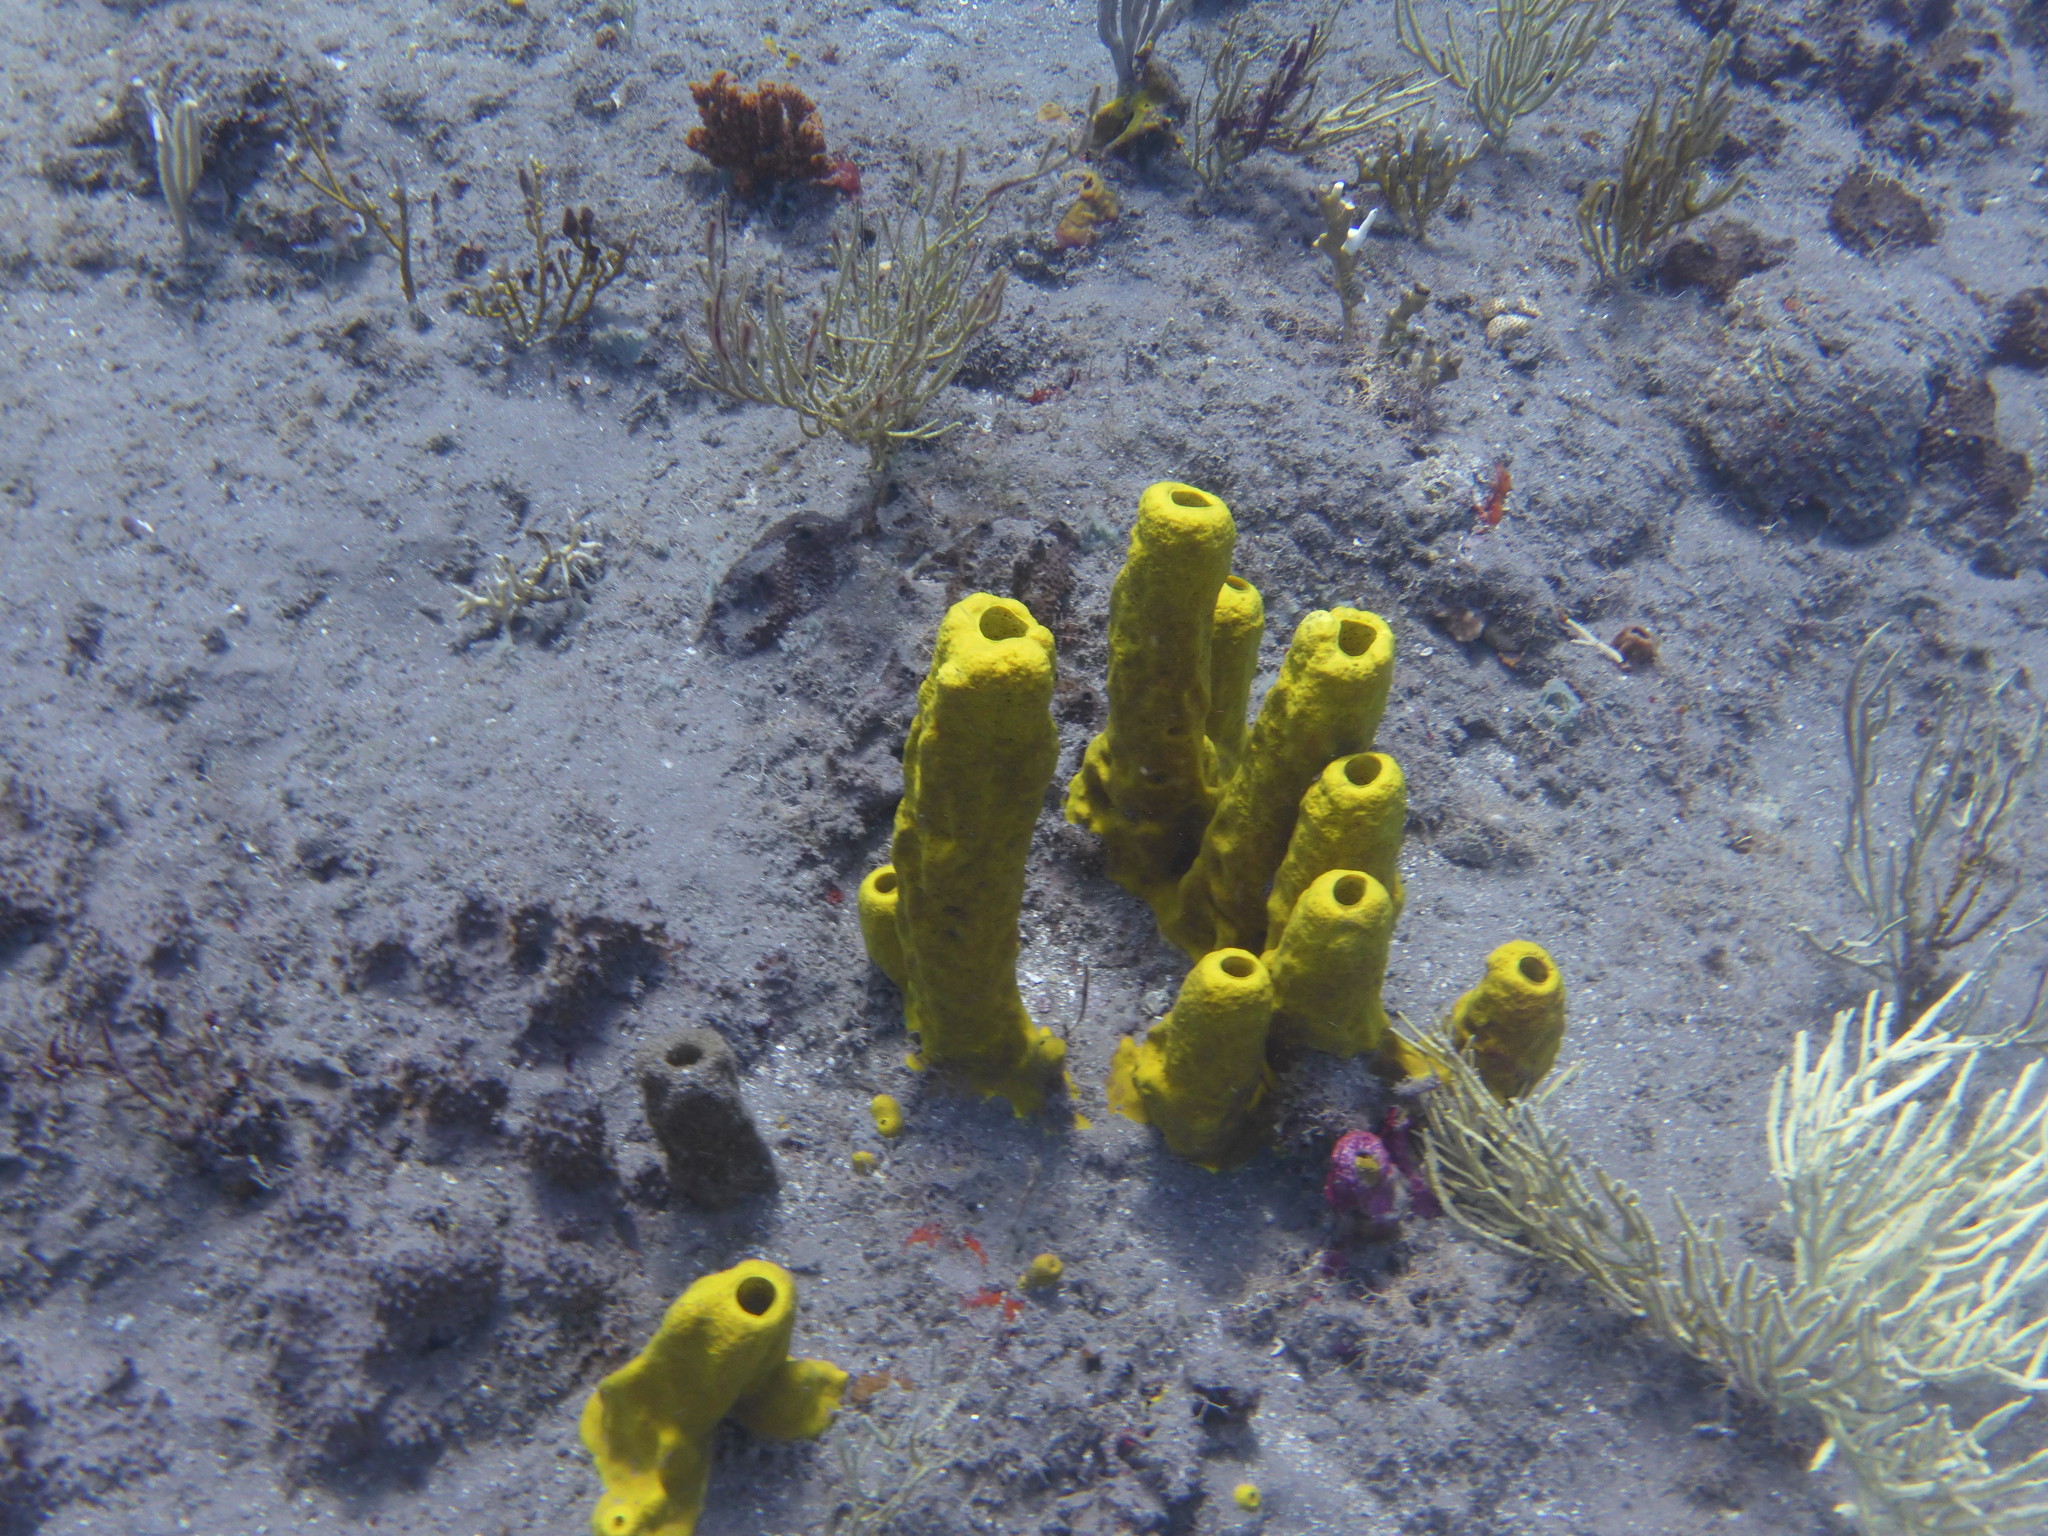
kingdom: Animalia
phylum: Porifera
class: Demospongiae
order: Verongiida
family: Aplysinidae
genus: Aplysina
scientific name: Aplysina fistularis
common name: Candle sponge
